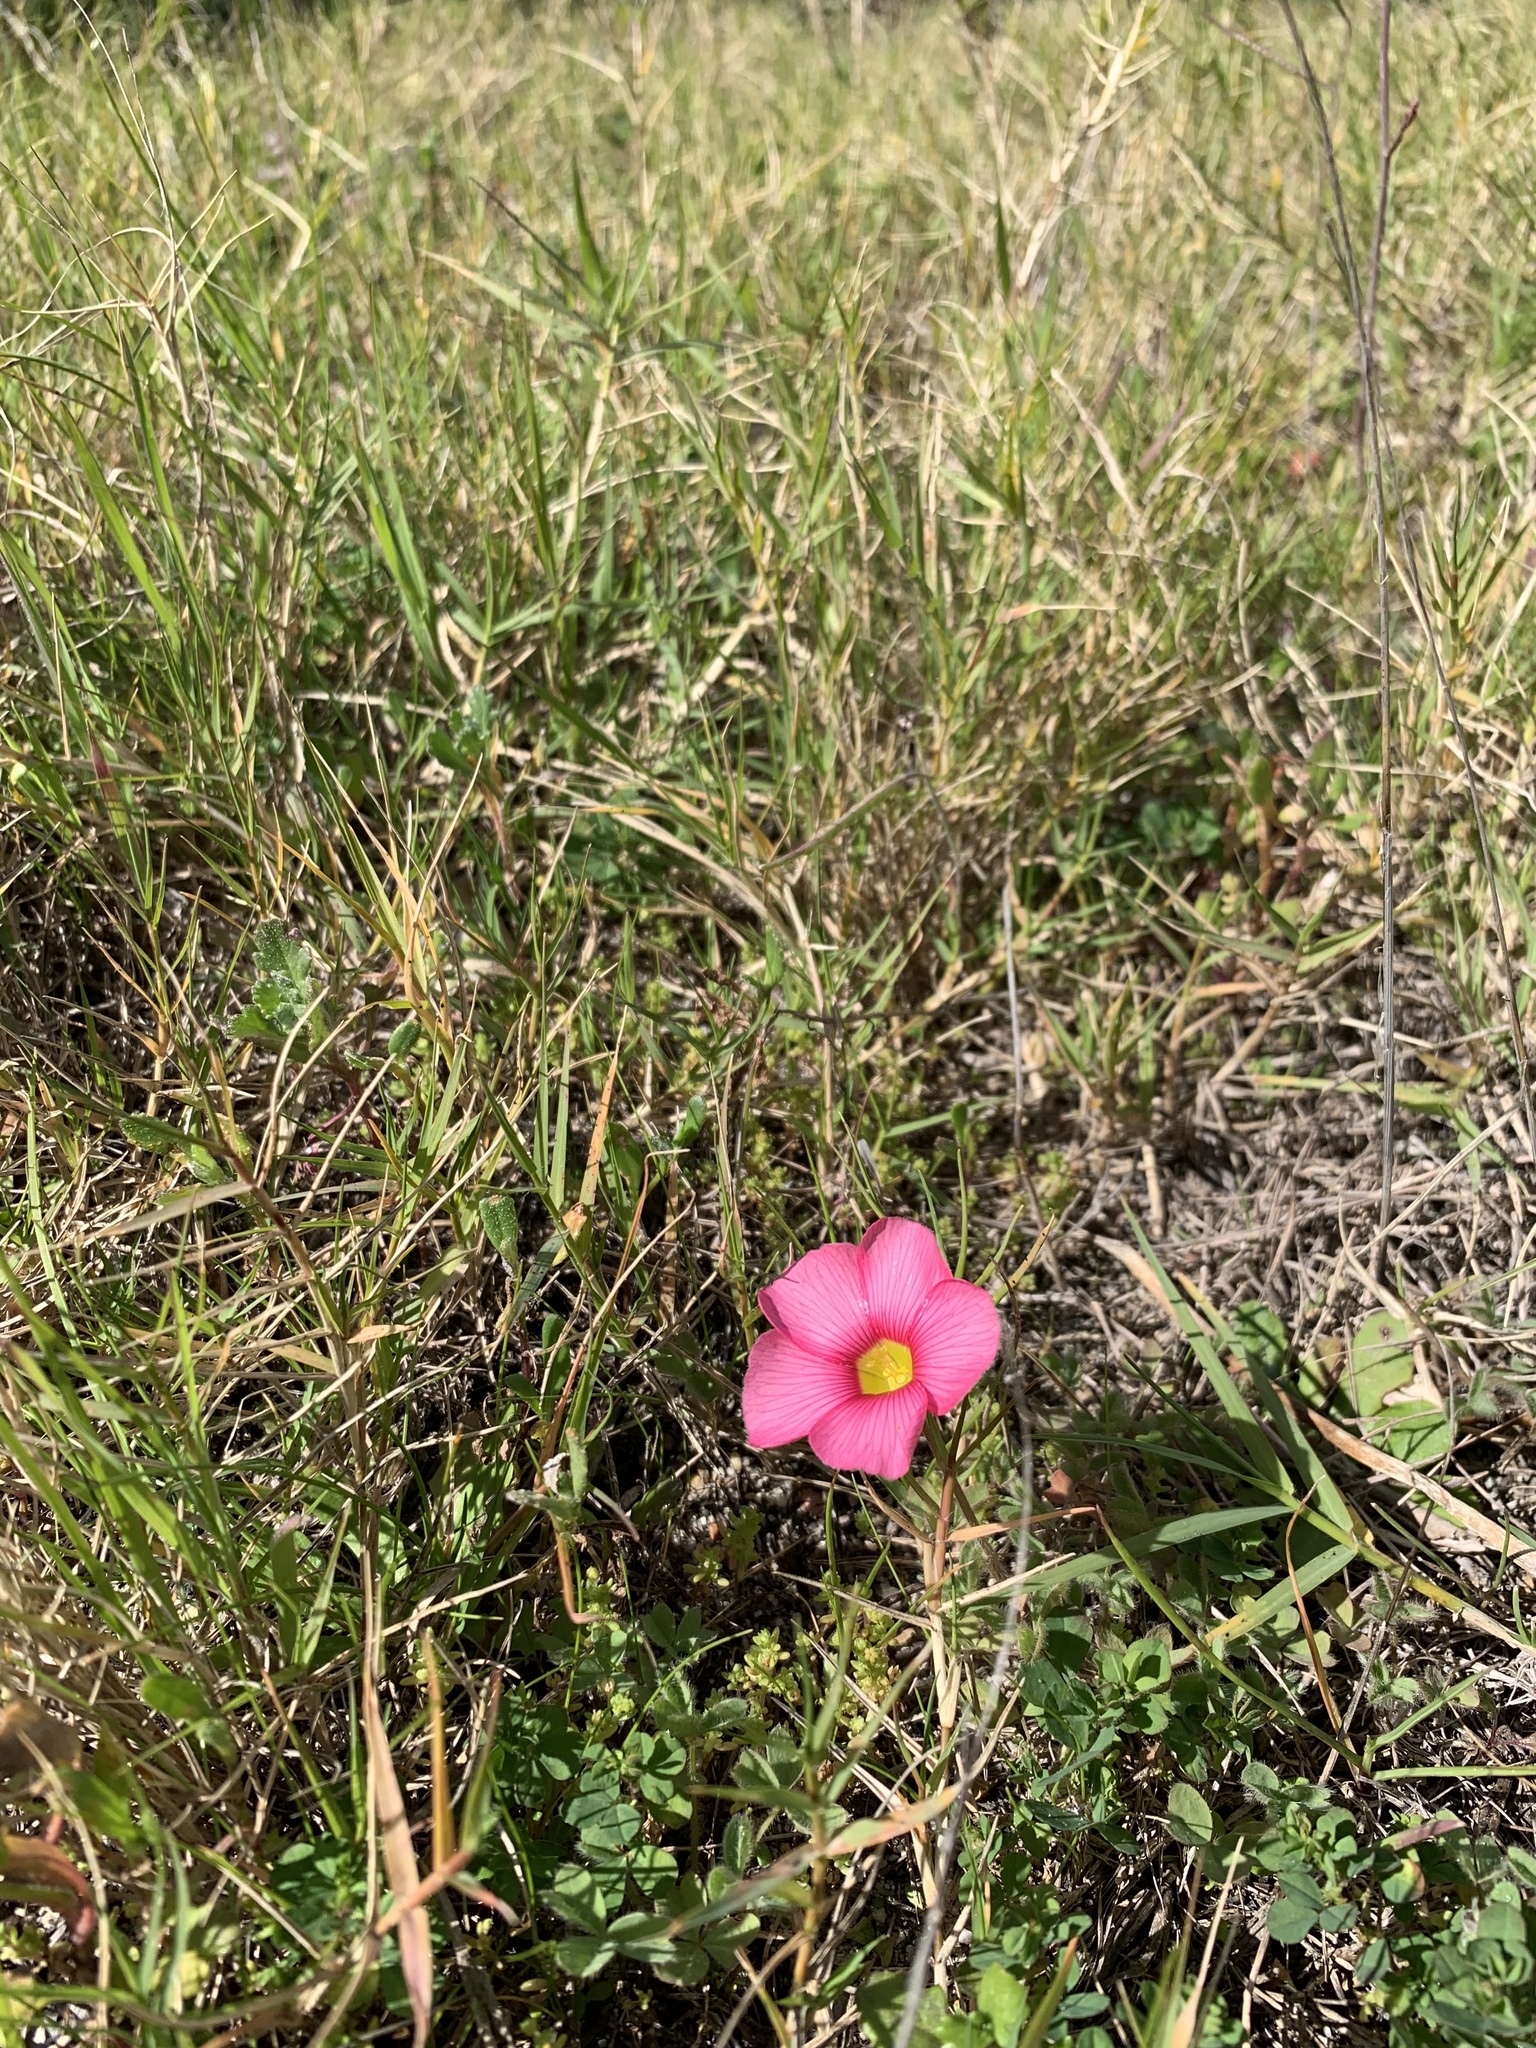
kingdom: Plantae
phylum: Tracheophyta
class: Magnoliopsida
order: Oxalidales
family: Oxalidaceae
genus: Oxalis
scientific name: Oxalis obtusa
